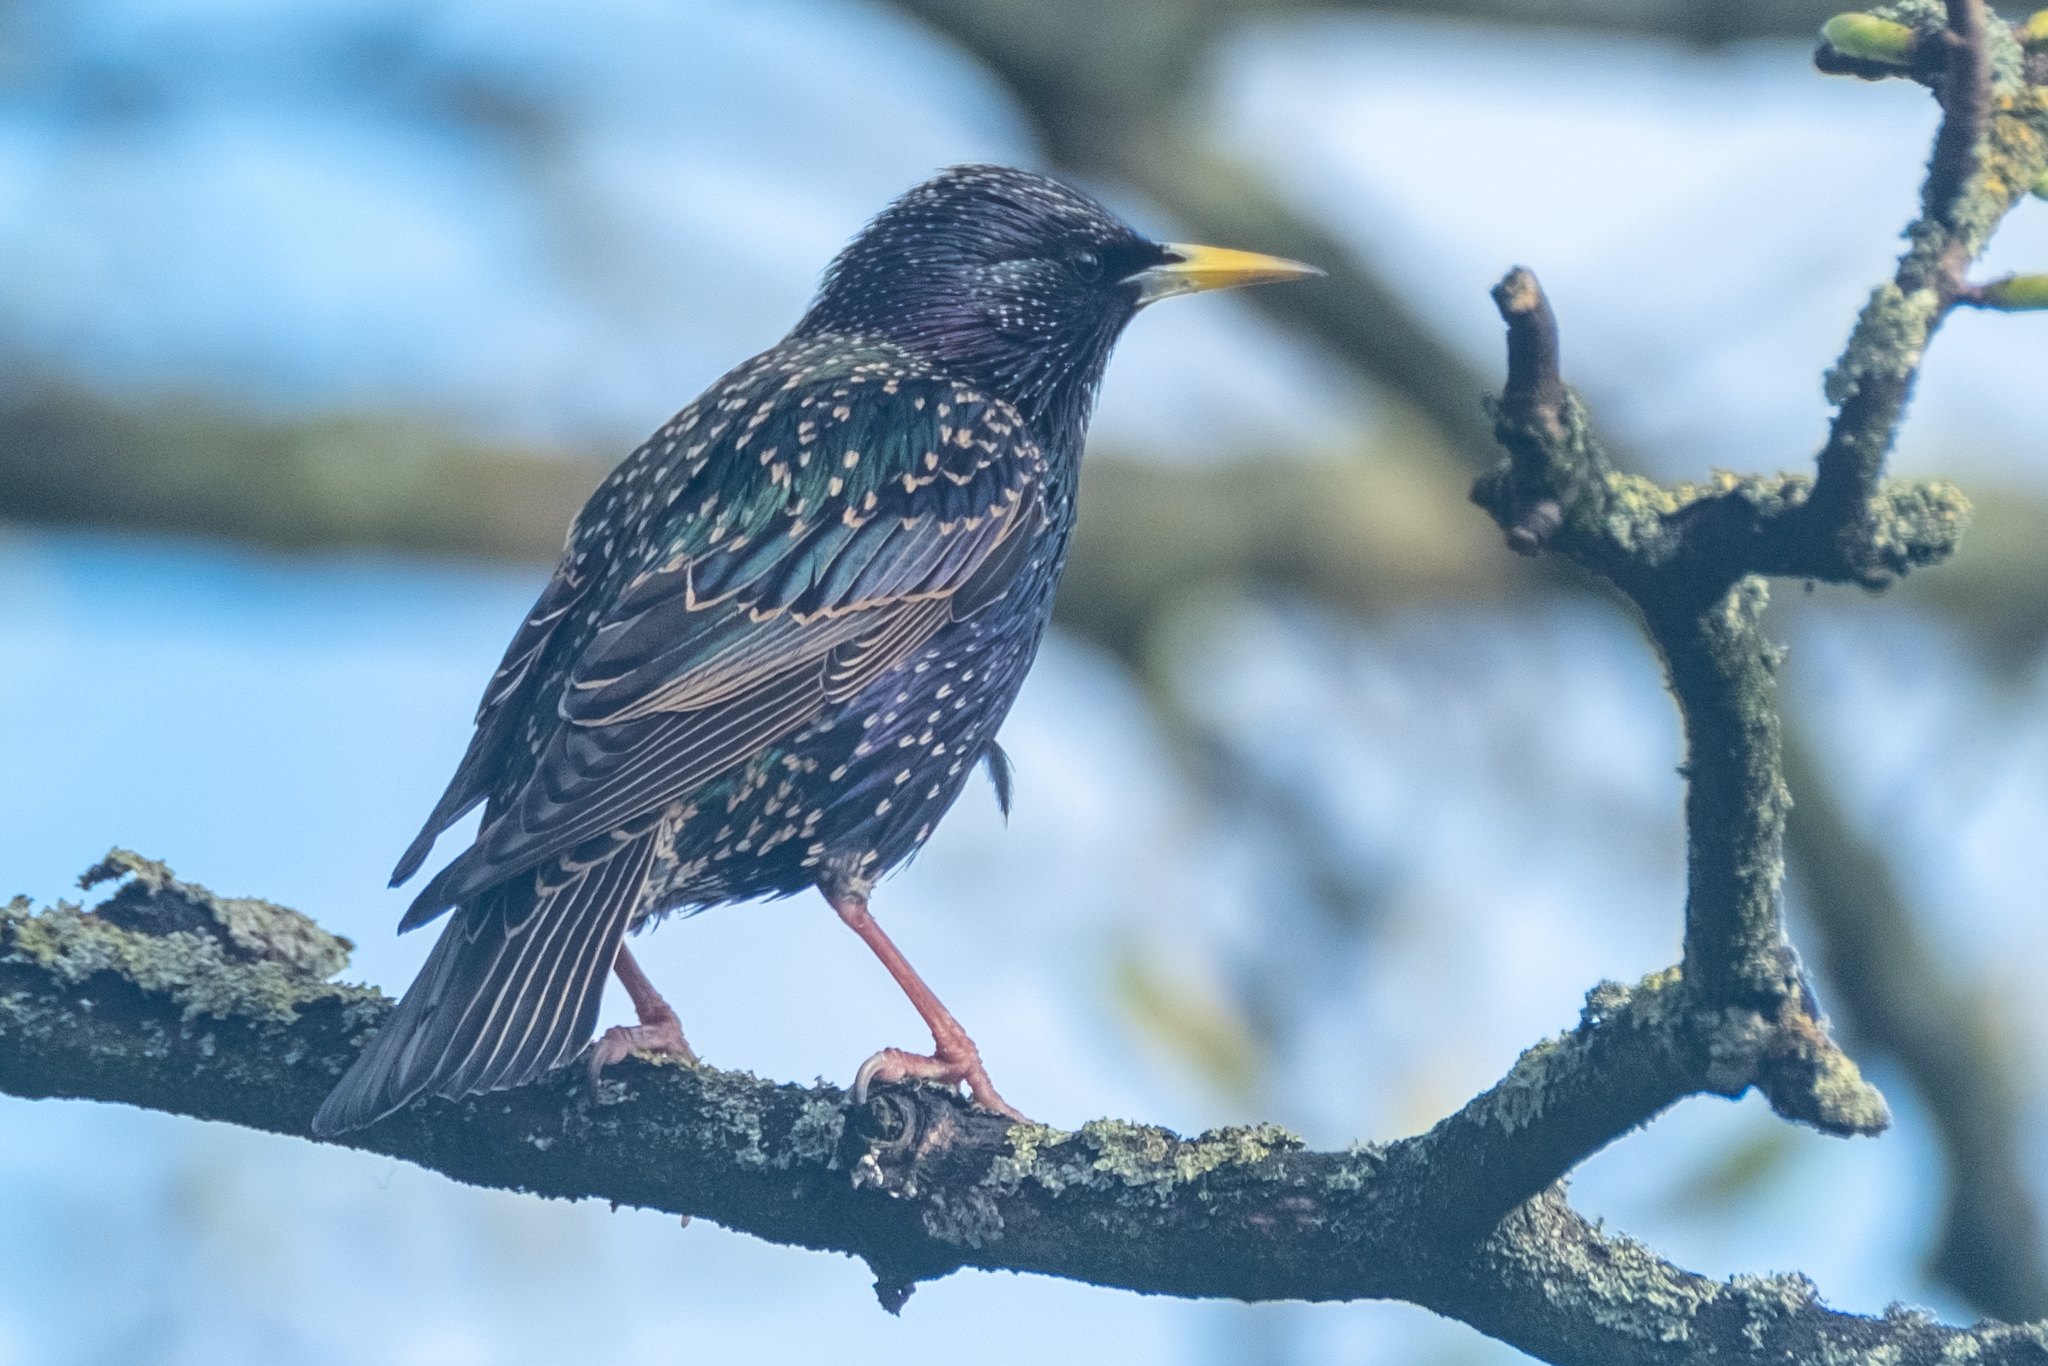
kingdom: Animalia
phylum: Chordata
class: Aves
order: Passeriformes
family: Sturnidae
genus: Sturnus
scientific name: Sturnus vulgaris
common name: Common starling
